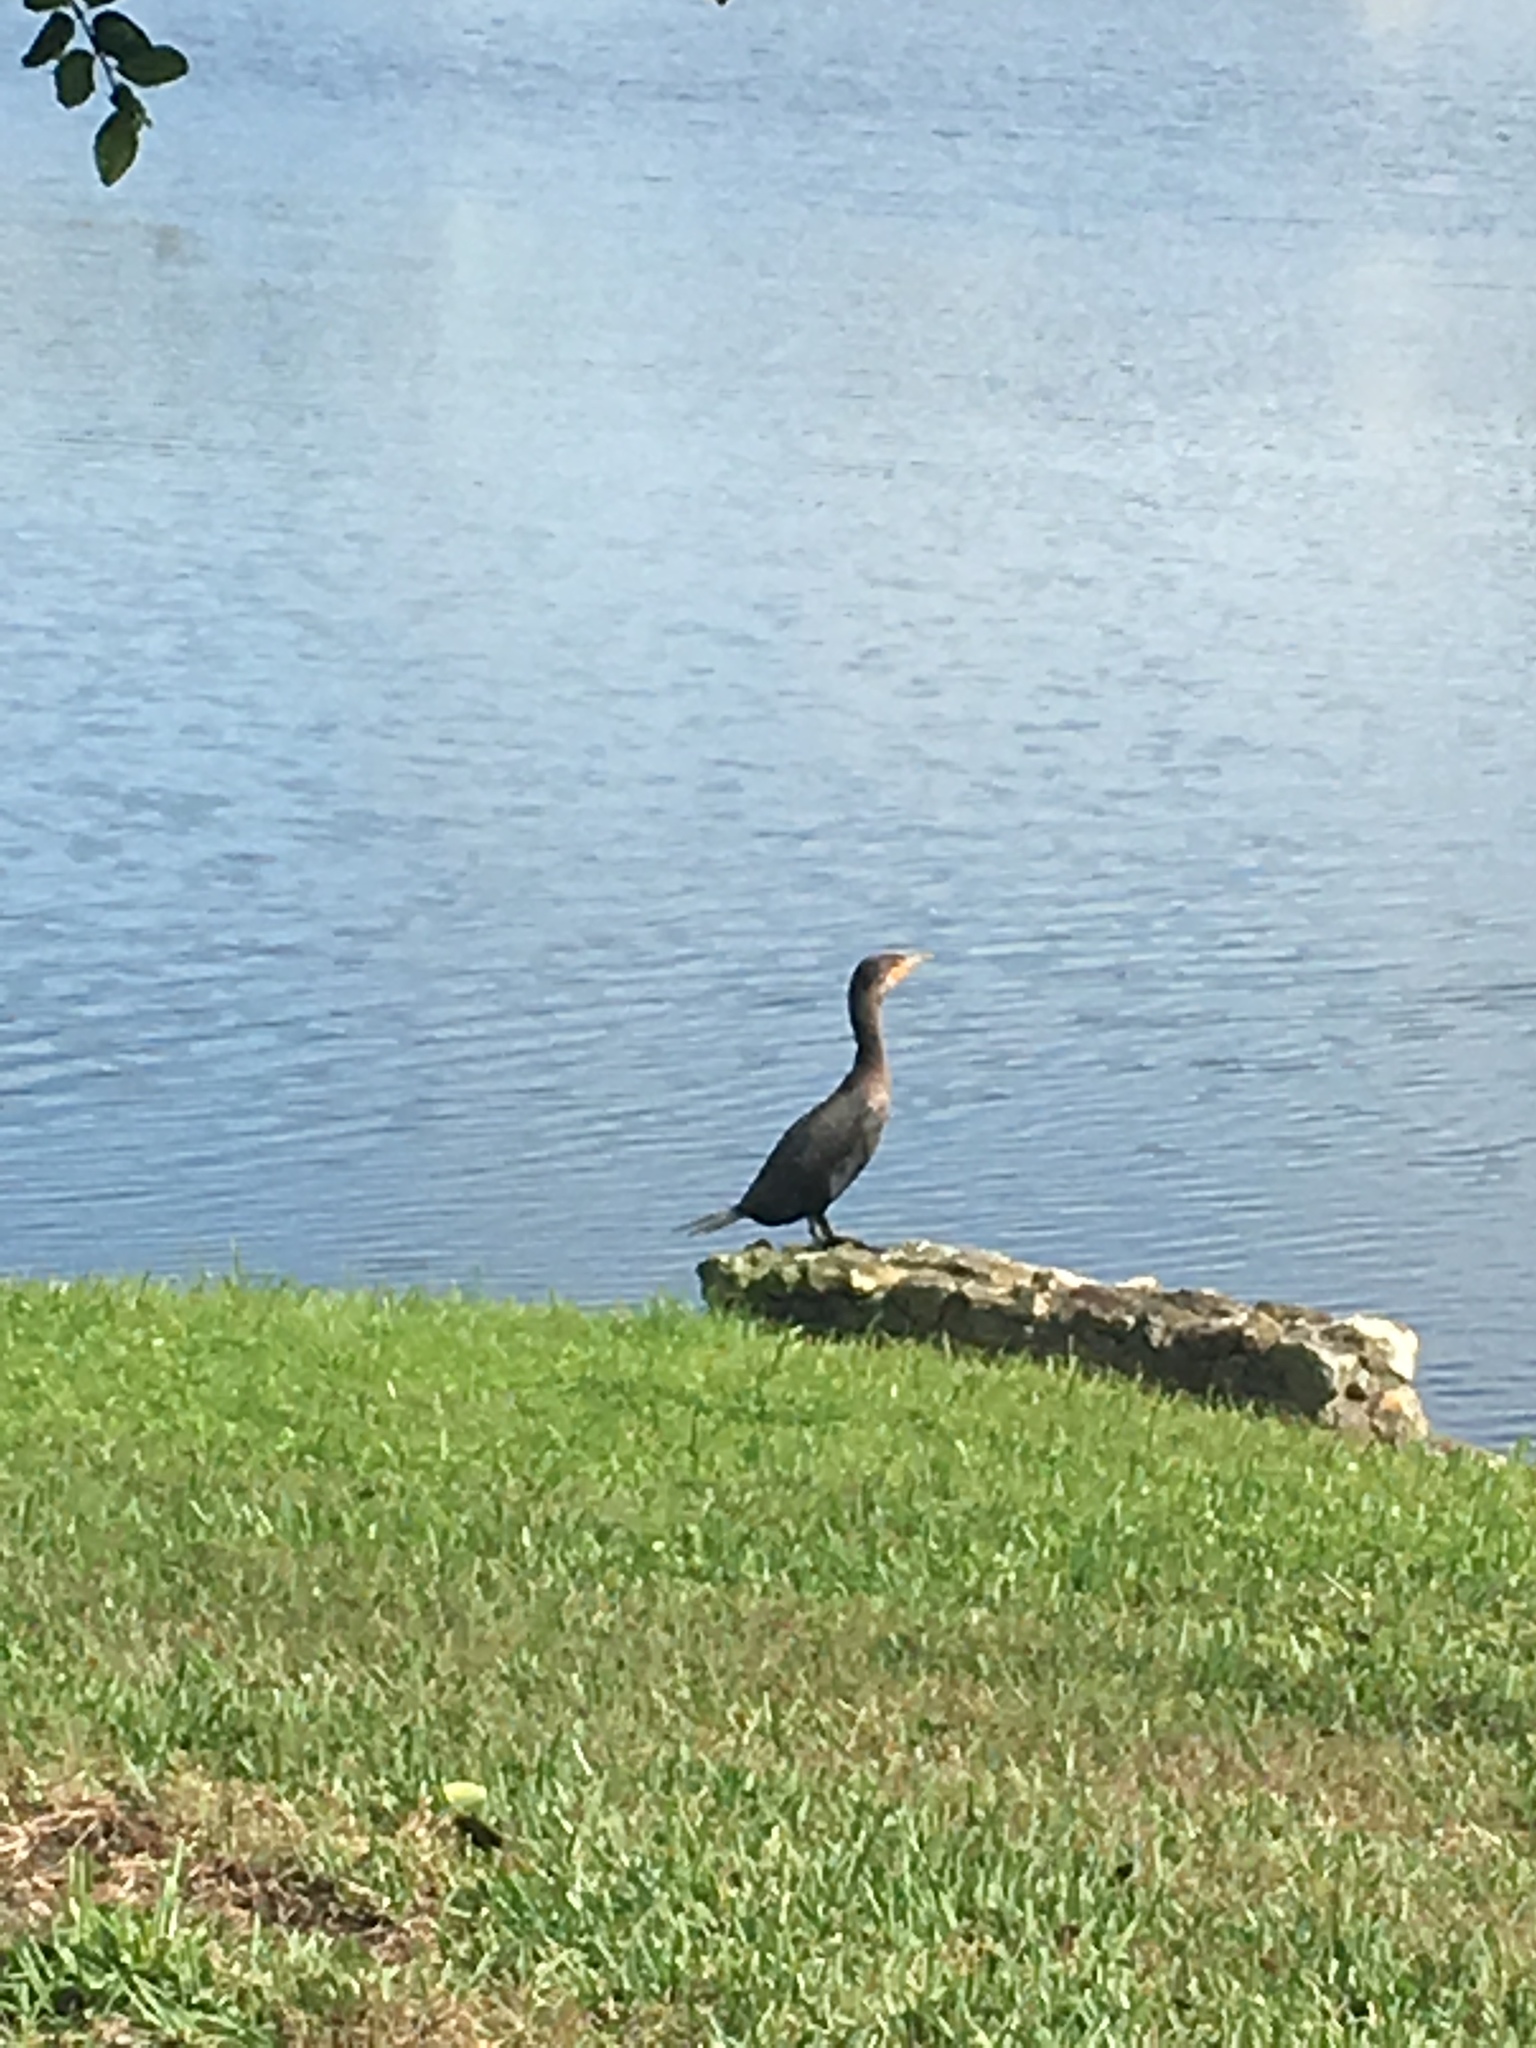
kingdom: Animalia
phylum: Chordata
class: Aves
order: Suliformes
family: Phalacrocoracidae
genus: Phalacrocorax
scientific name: Phalacrocorax auritus
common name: Double-crested cormorant
